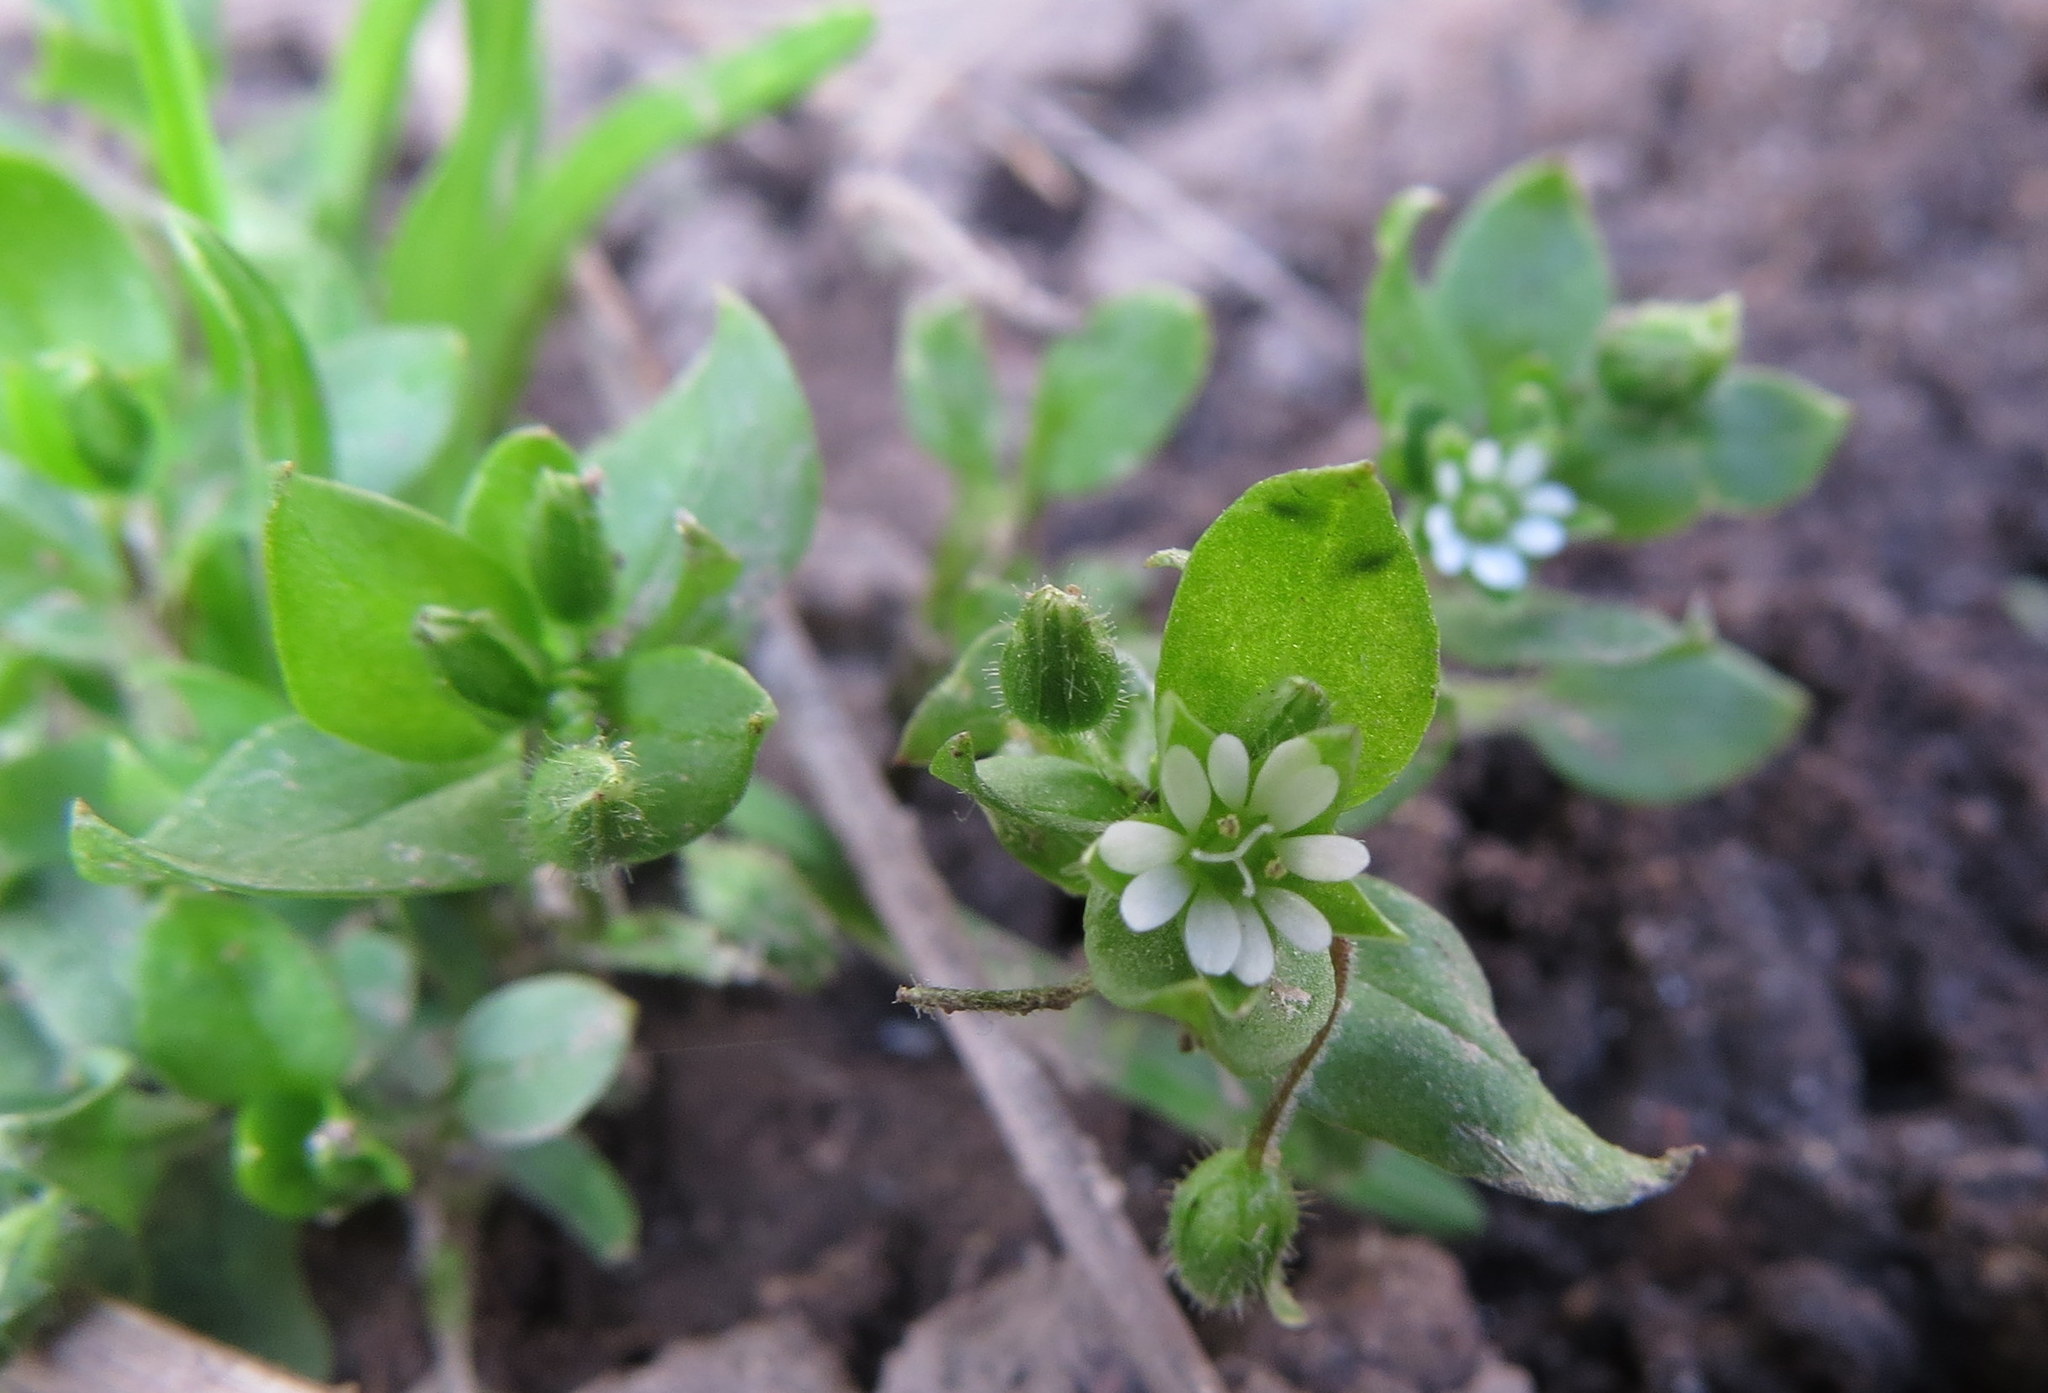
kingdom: Plantae
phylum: Tracheophyta
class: Magnoliopsida
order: Caryophyllales
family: Caryophyllaceae
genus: Stellaria
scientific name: Stellaria media
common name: Common chickweed
